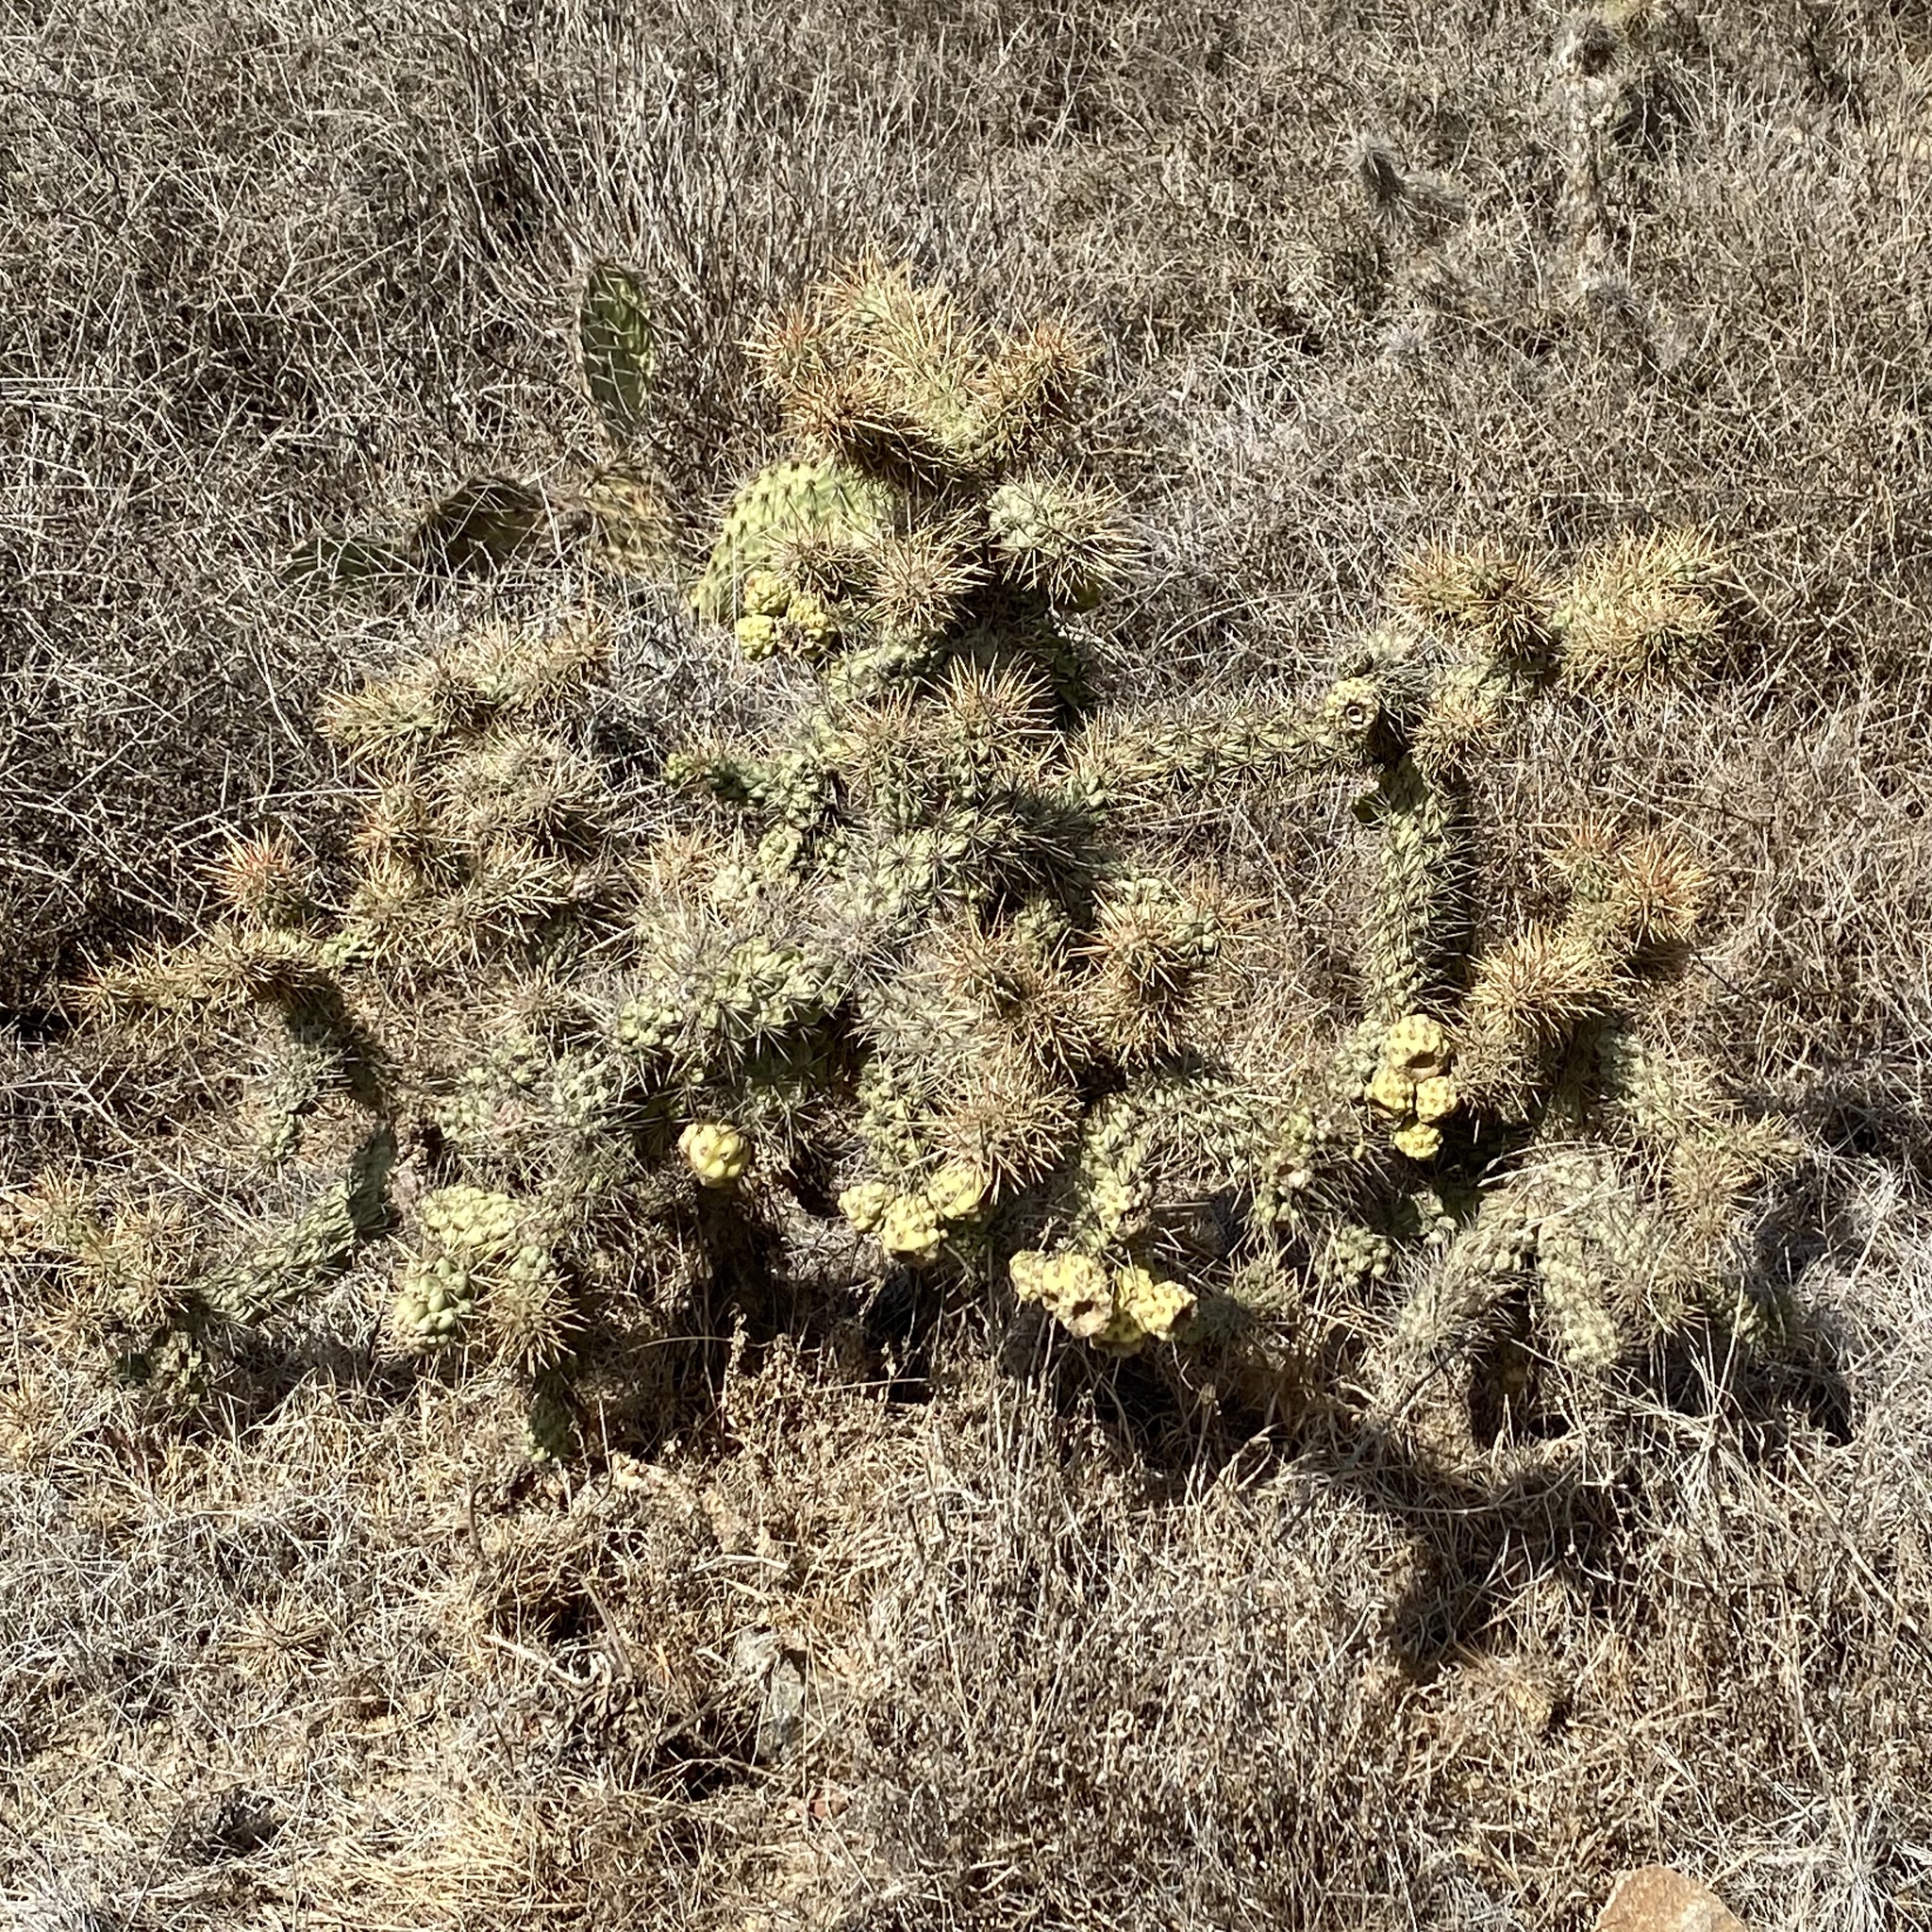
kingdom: Plantae
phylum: Tracheophyta
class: Magnoliopsida
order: Caryophyllales
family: Cactaceae
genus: Cylindropuntia
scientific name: Cylindropuntia prolifera
